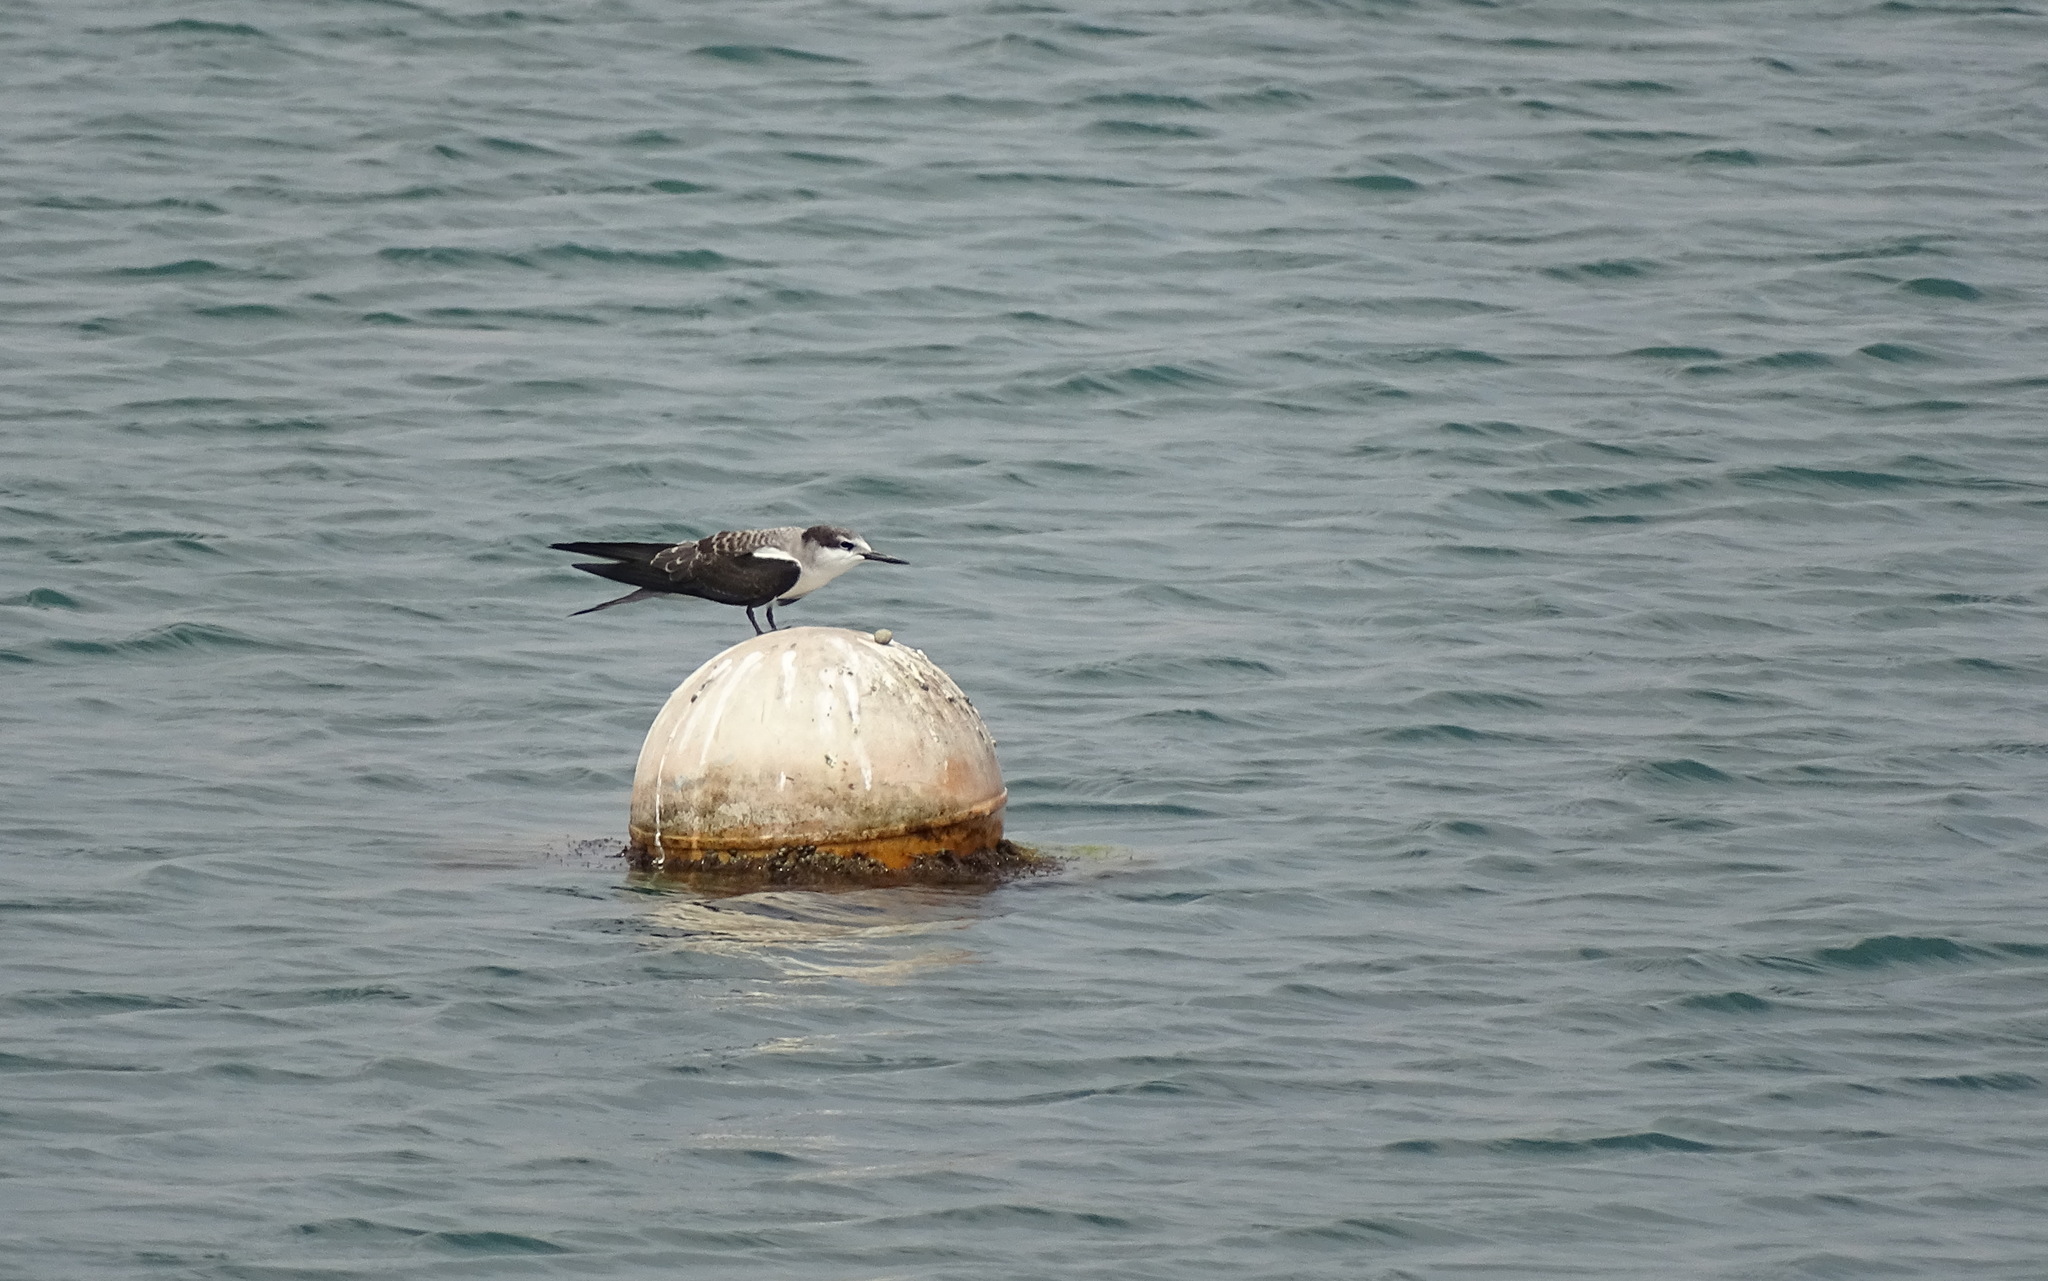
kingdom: Animalia
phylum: Chordata
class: Aves
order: Charadriiformes
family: Laridae
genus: Onychoprion
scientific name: Onychoprion anaethetus
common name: Bridled tern
